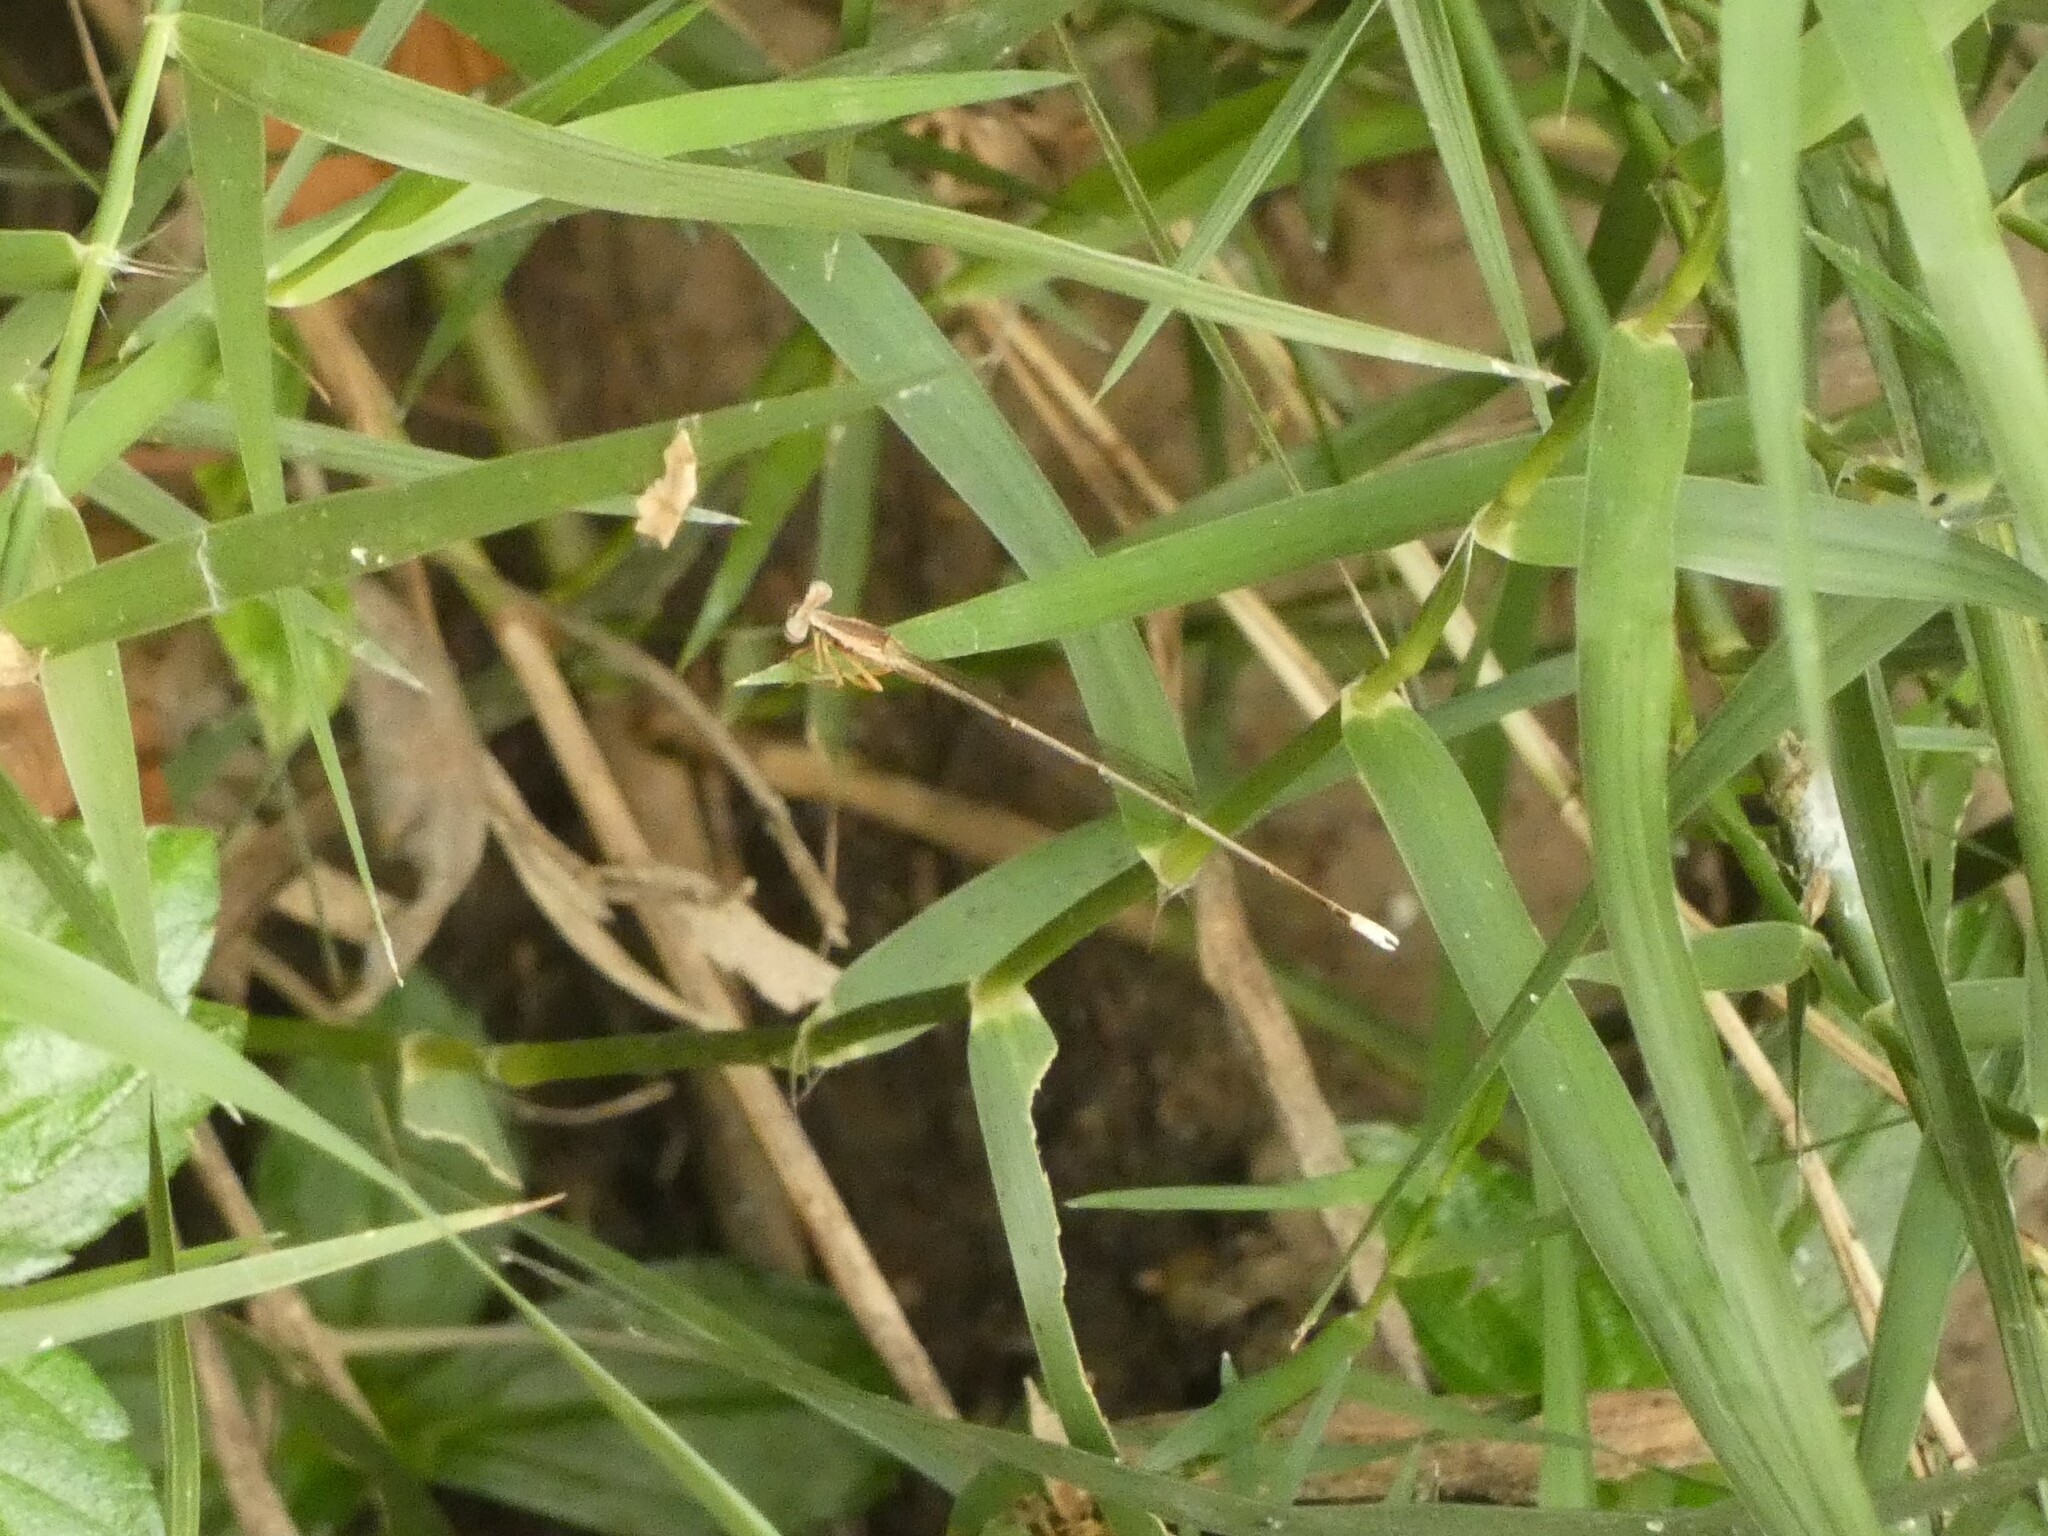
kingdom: Animalia
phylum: Arthropoda
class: Insecta
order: Odonata
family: Platycnemididae
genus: Copera
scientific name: Copera marginipes
